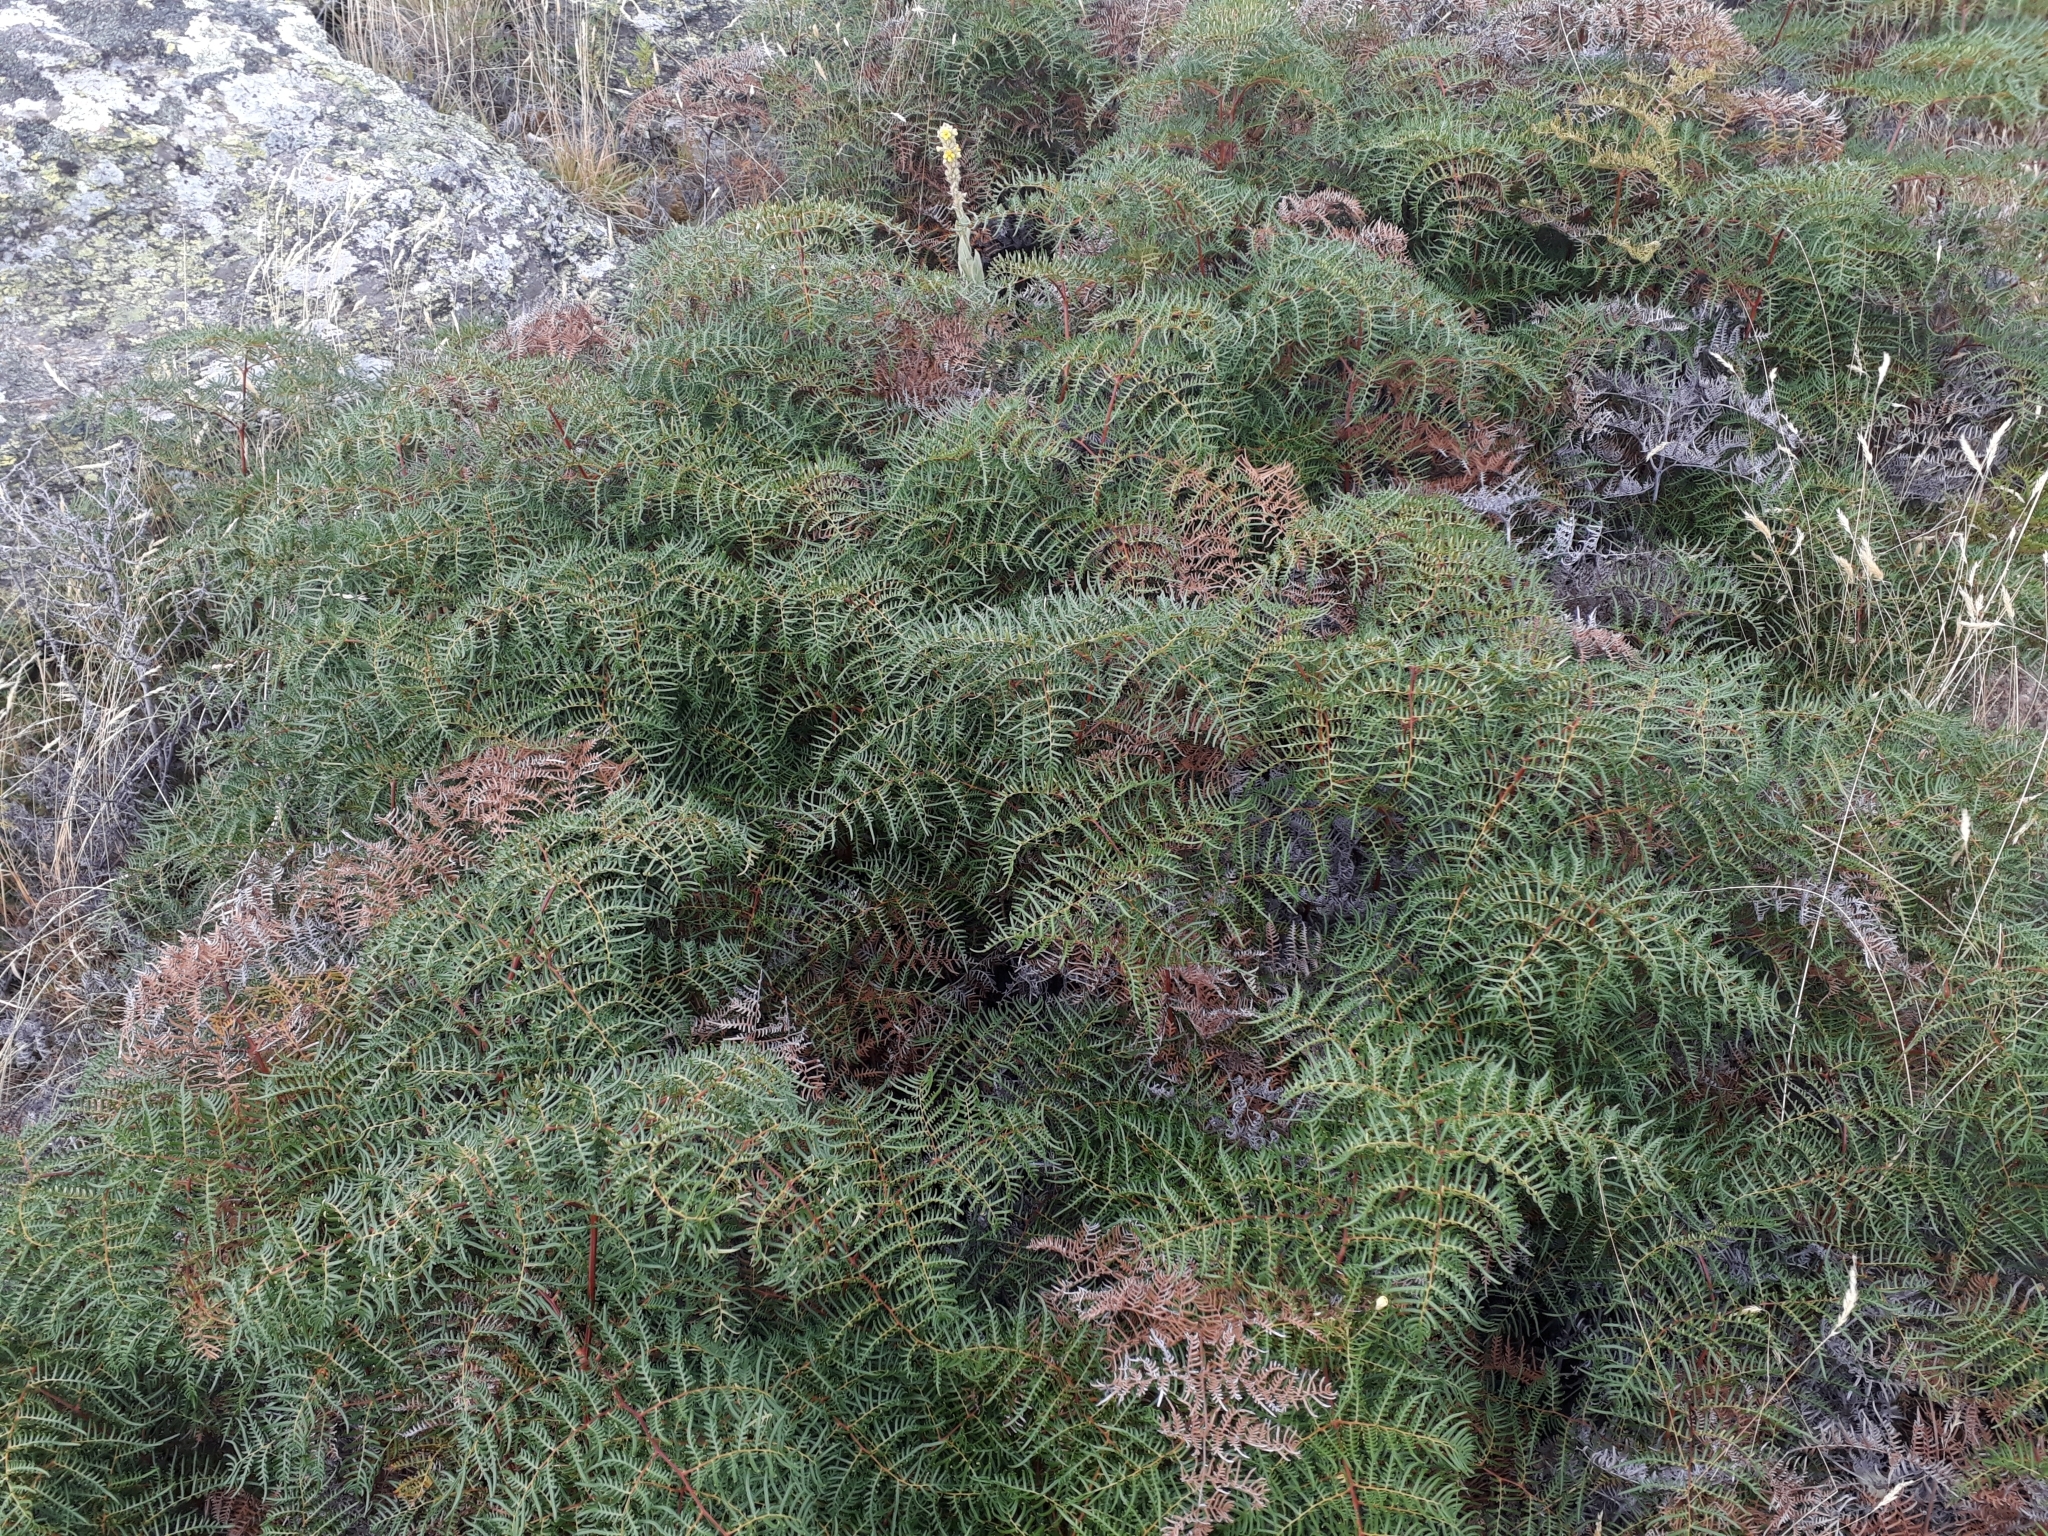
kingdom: Plantae
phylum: Tracheophyta
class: Polypodiopsida
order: Polypodiales
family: Dennstaedtiaceae
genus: Pteridium
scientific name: Pteridium esculentum
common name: Bracken fern
